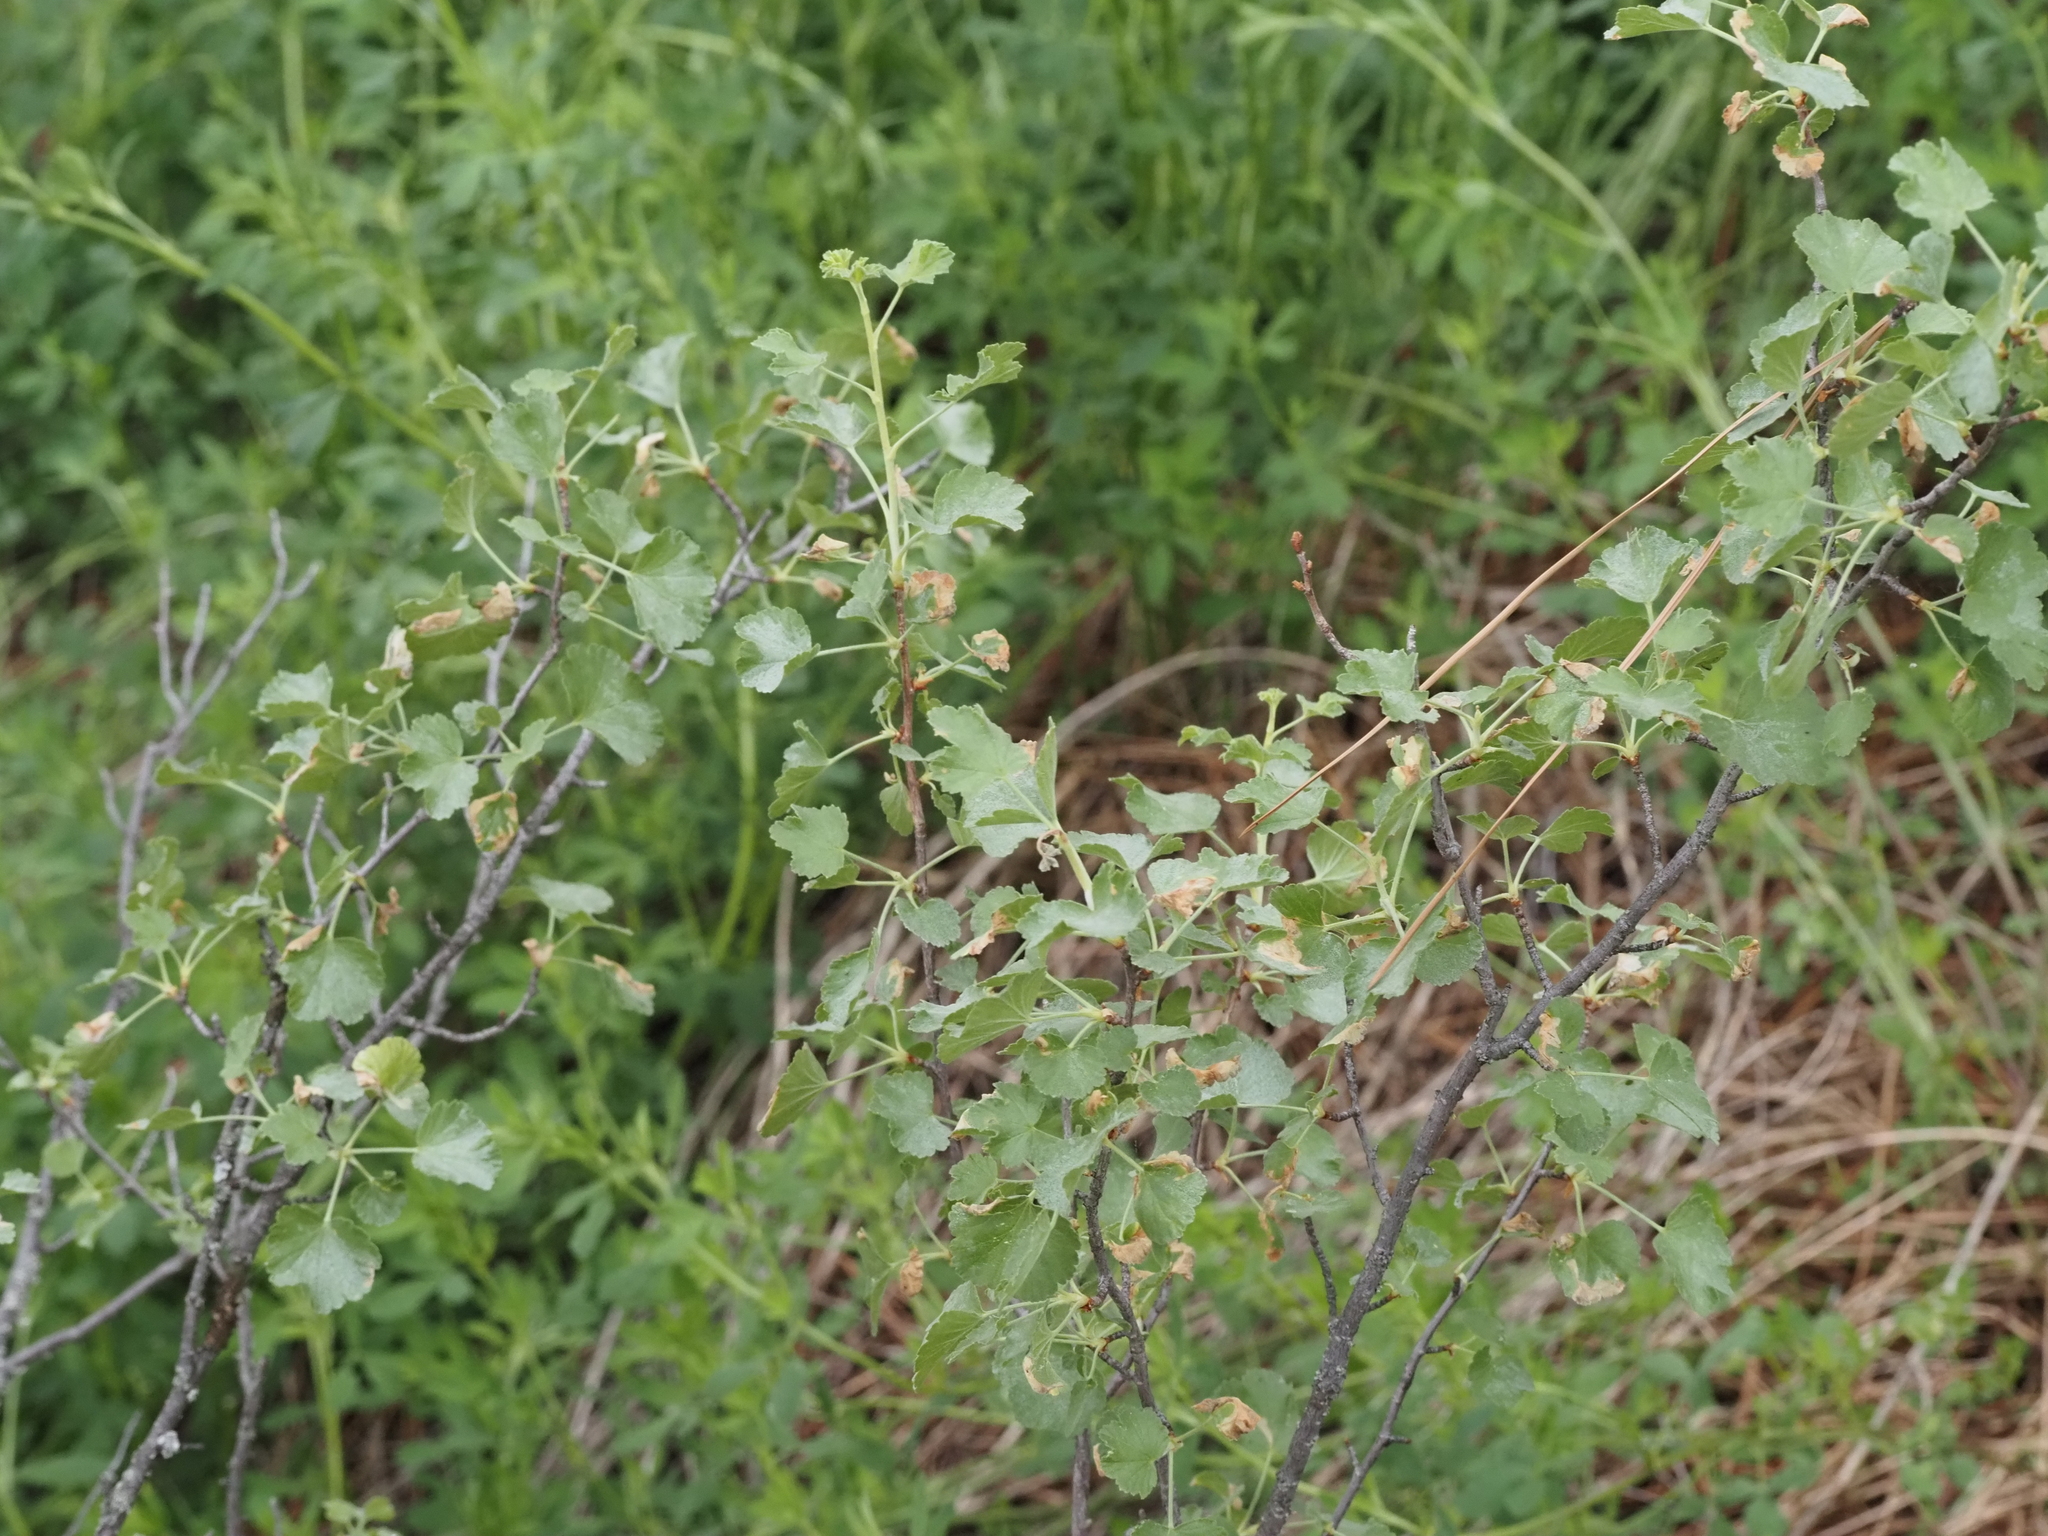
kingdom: Plantae
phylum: Tracheophyta
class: Magnoliopsida
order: Saxifragales
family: Grossulariaceae
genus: Ribes
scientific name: Ribes cereum
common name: Wax currant
